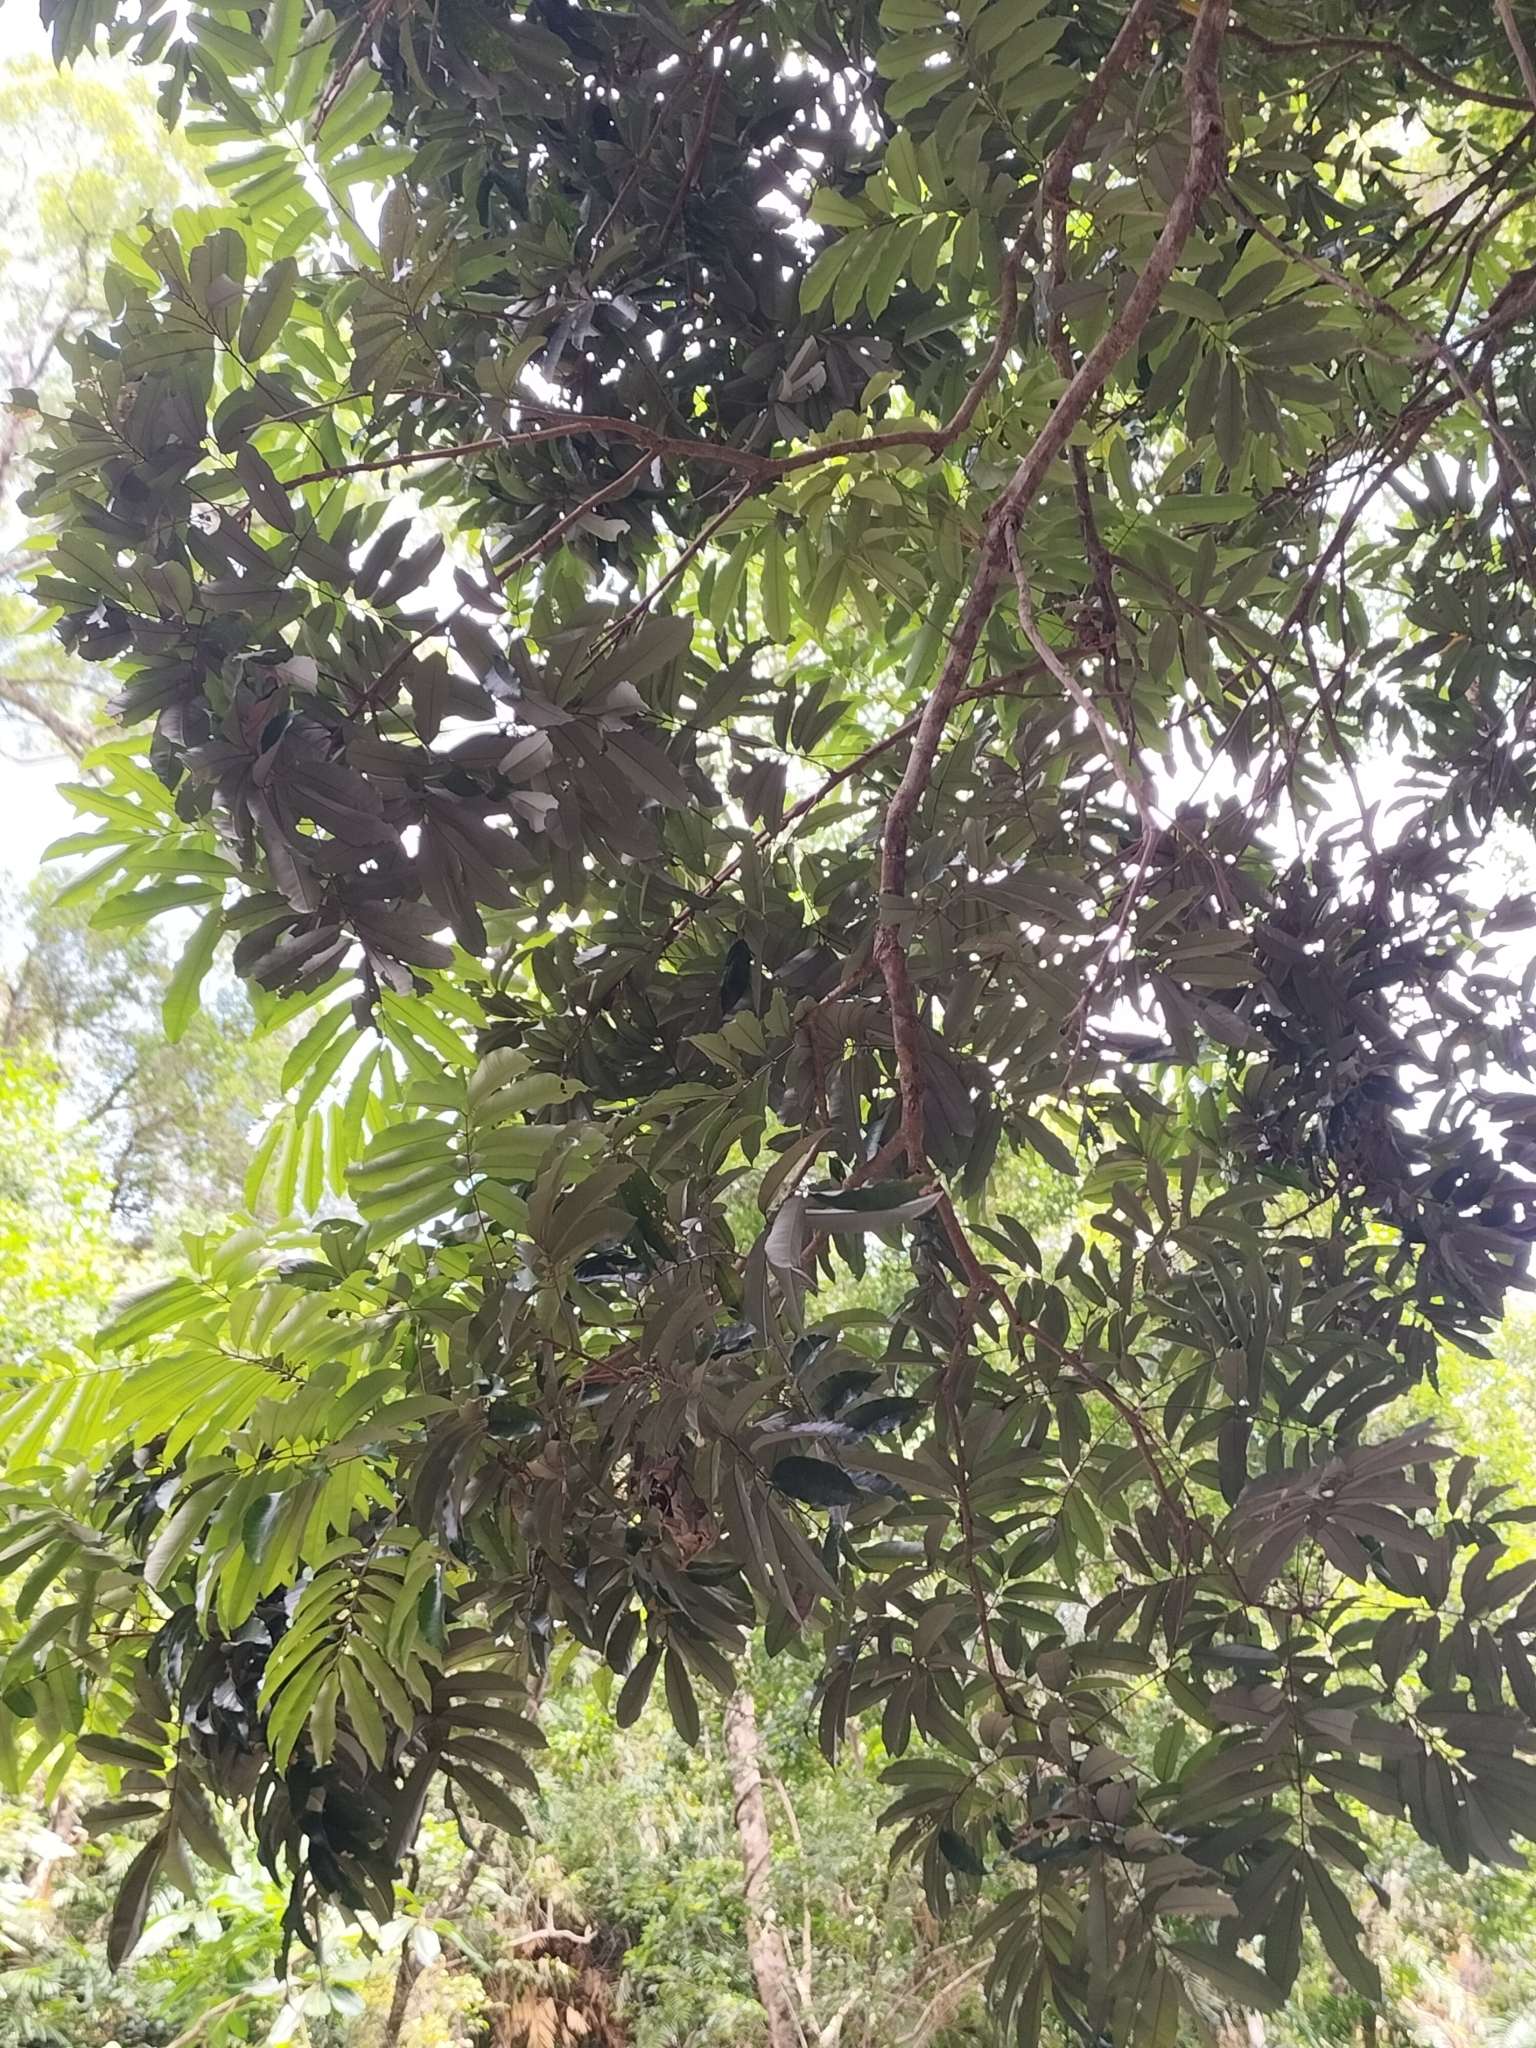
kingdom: Plantae
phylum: Tracheophyta
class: Magnoliopsida
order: Sapindales
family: Sapindaceae
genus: Castanospora
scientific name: Castanospora alphandii
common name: Brown-tamarind
